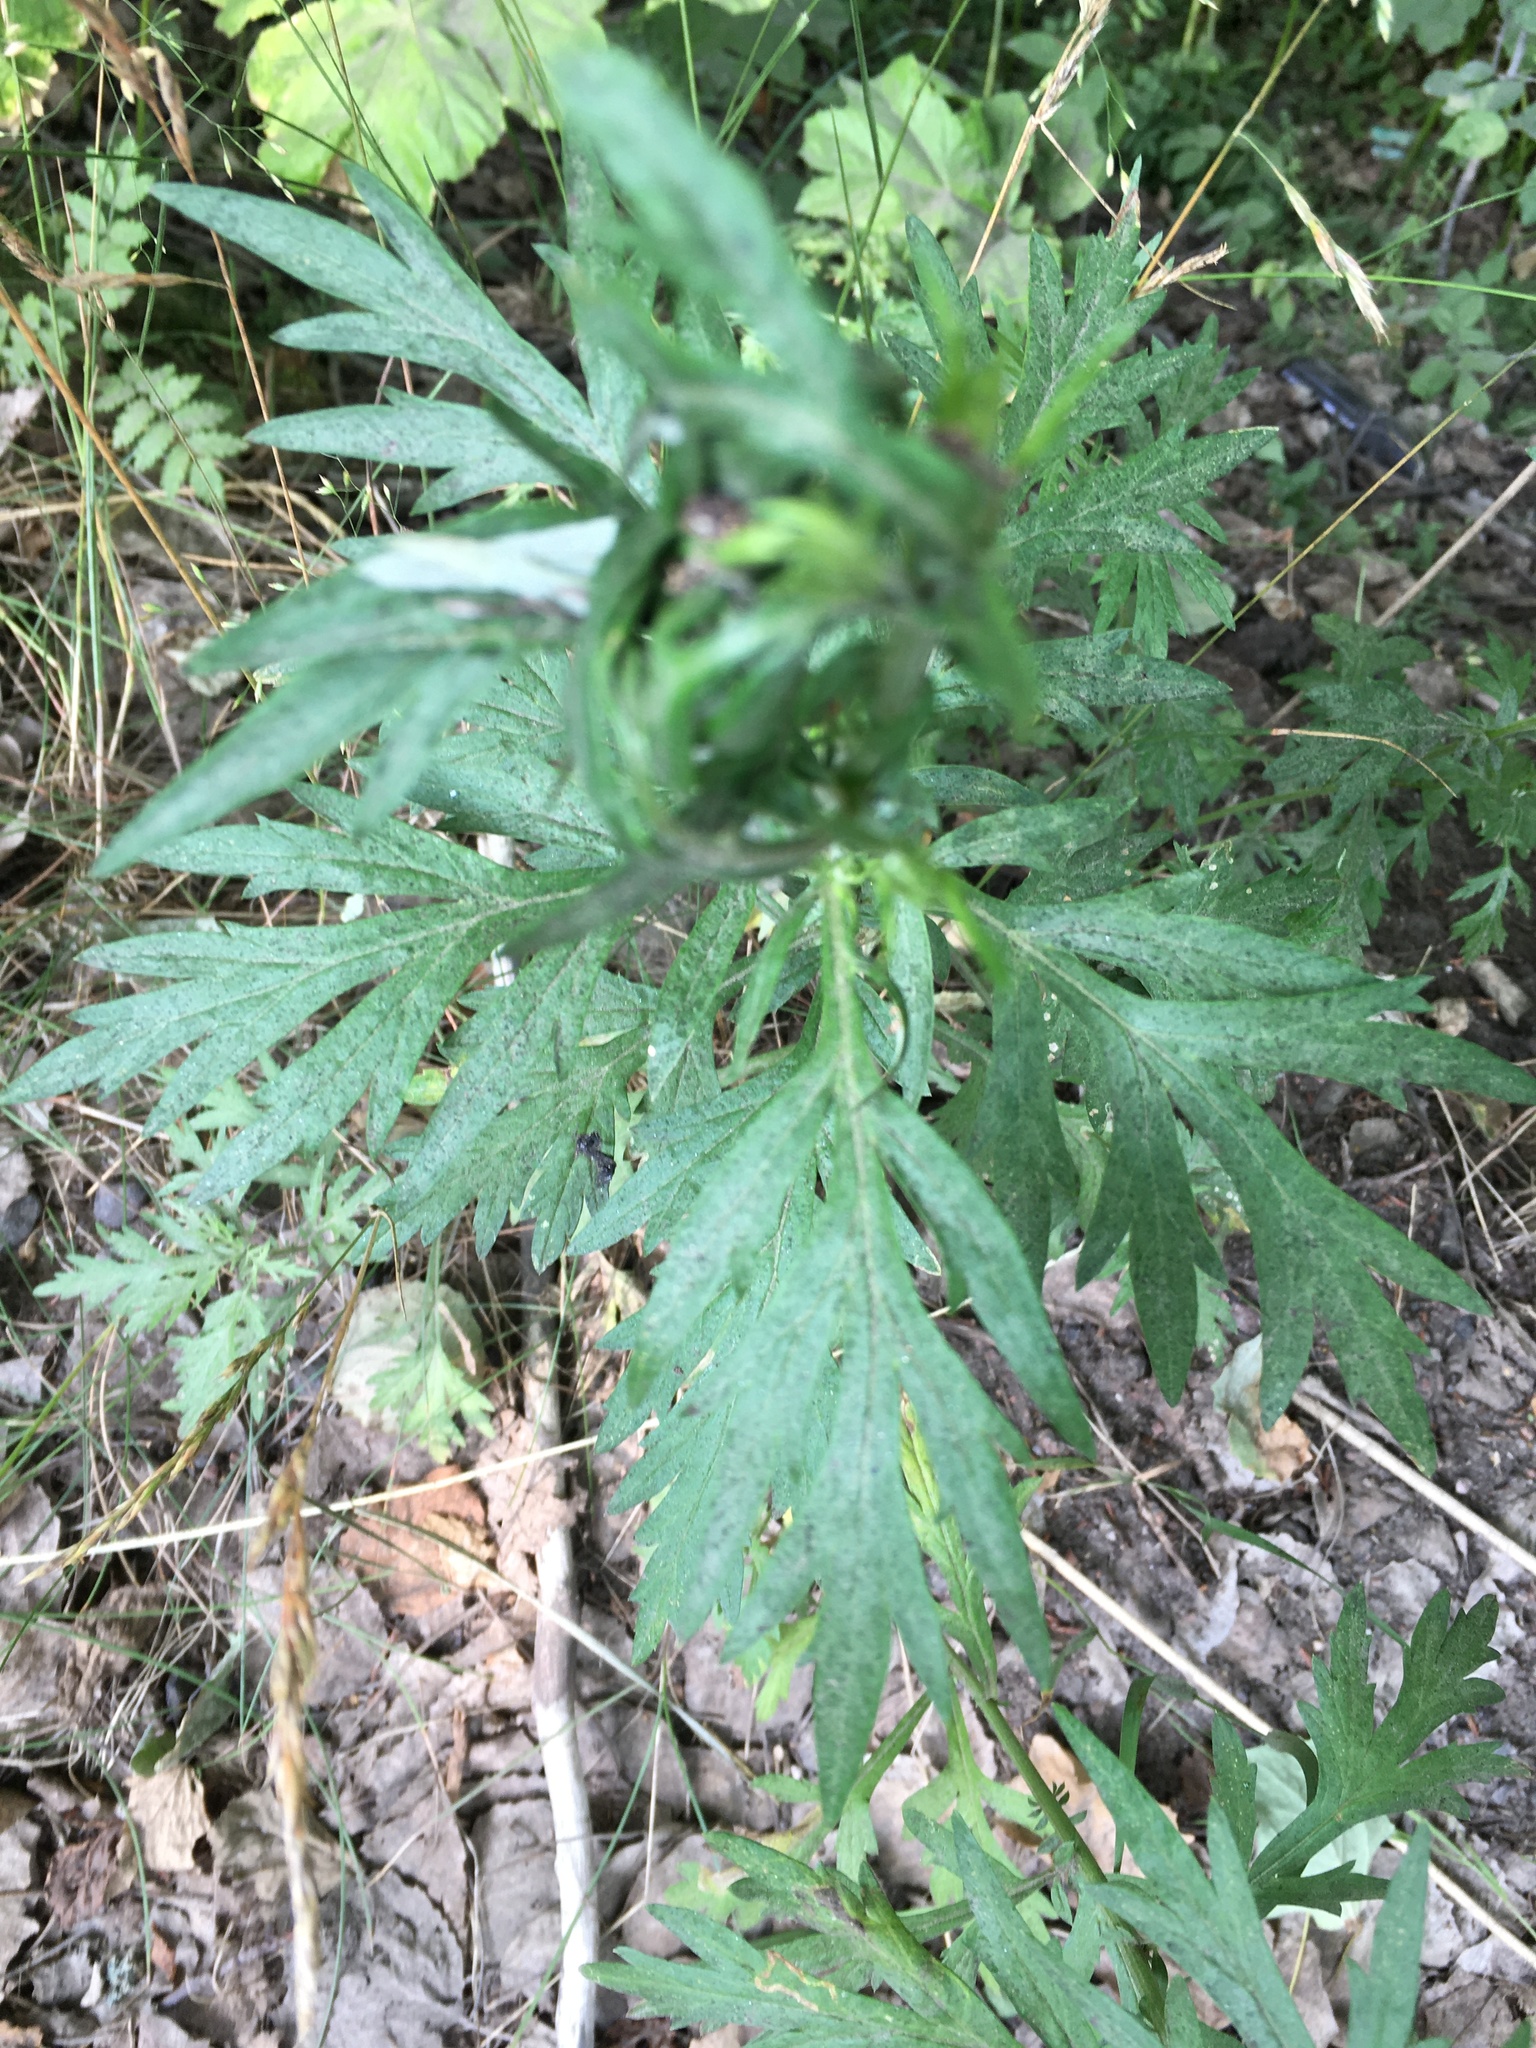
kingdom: Plantae
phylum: Tracheophyta
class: Magnoliopsida
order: Asterales
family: Asteraceae
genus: Artemisia
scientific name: Artemisia vulgaris
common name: Mugwort
